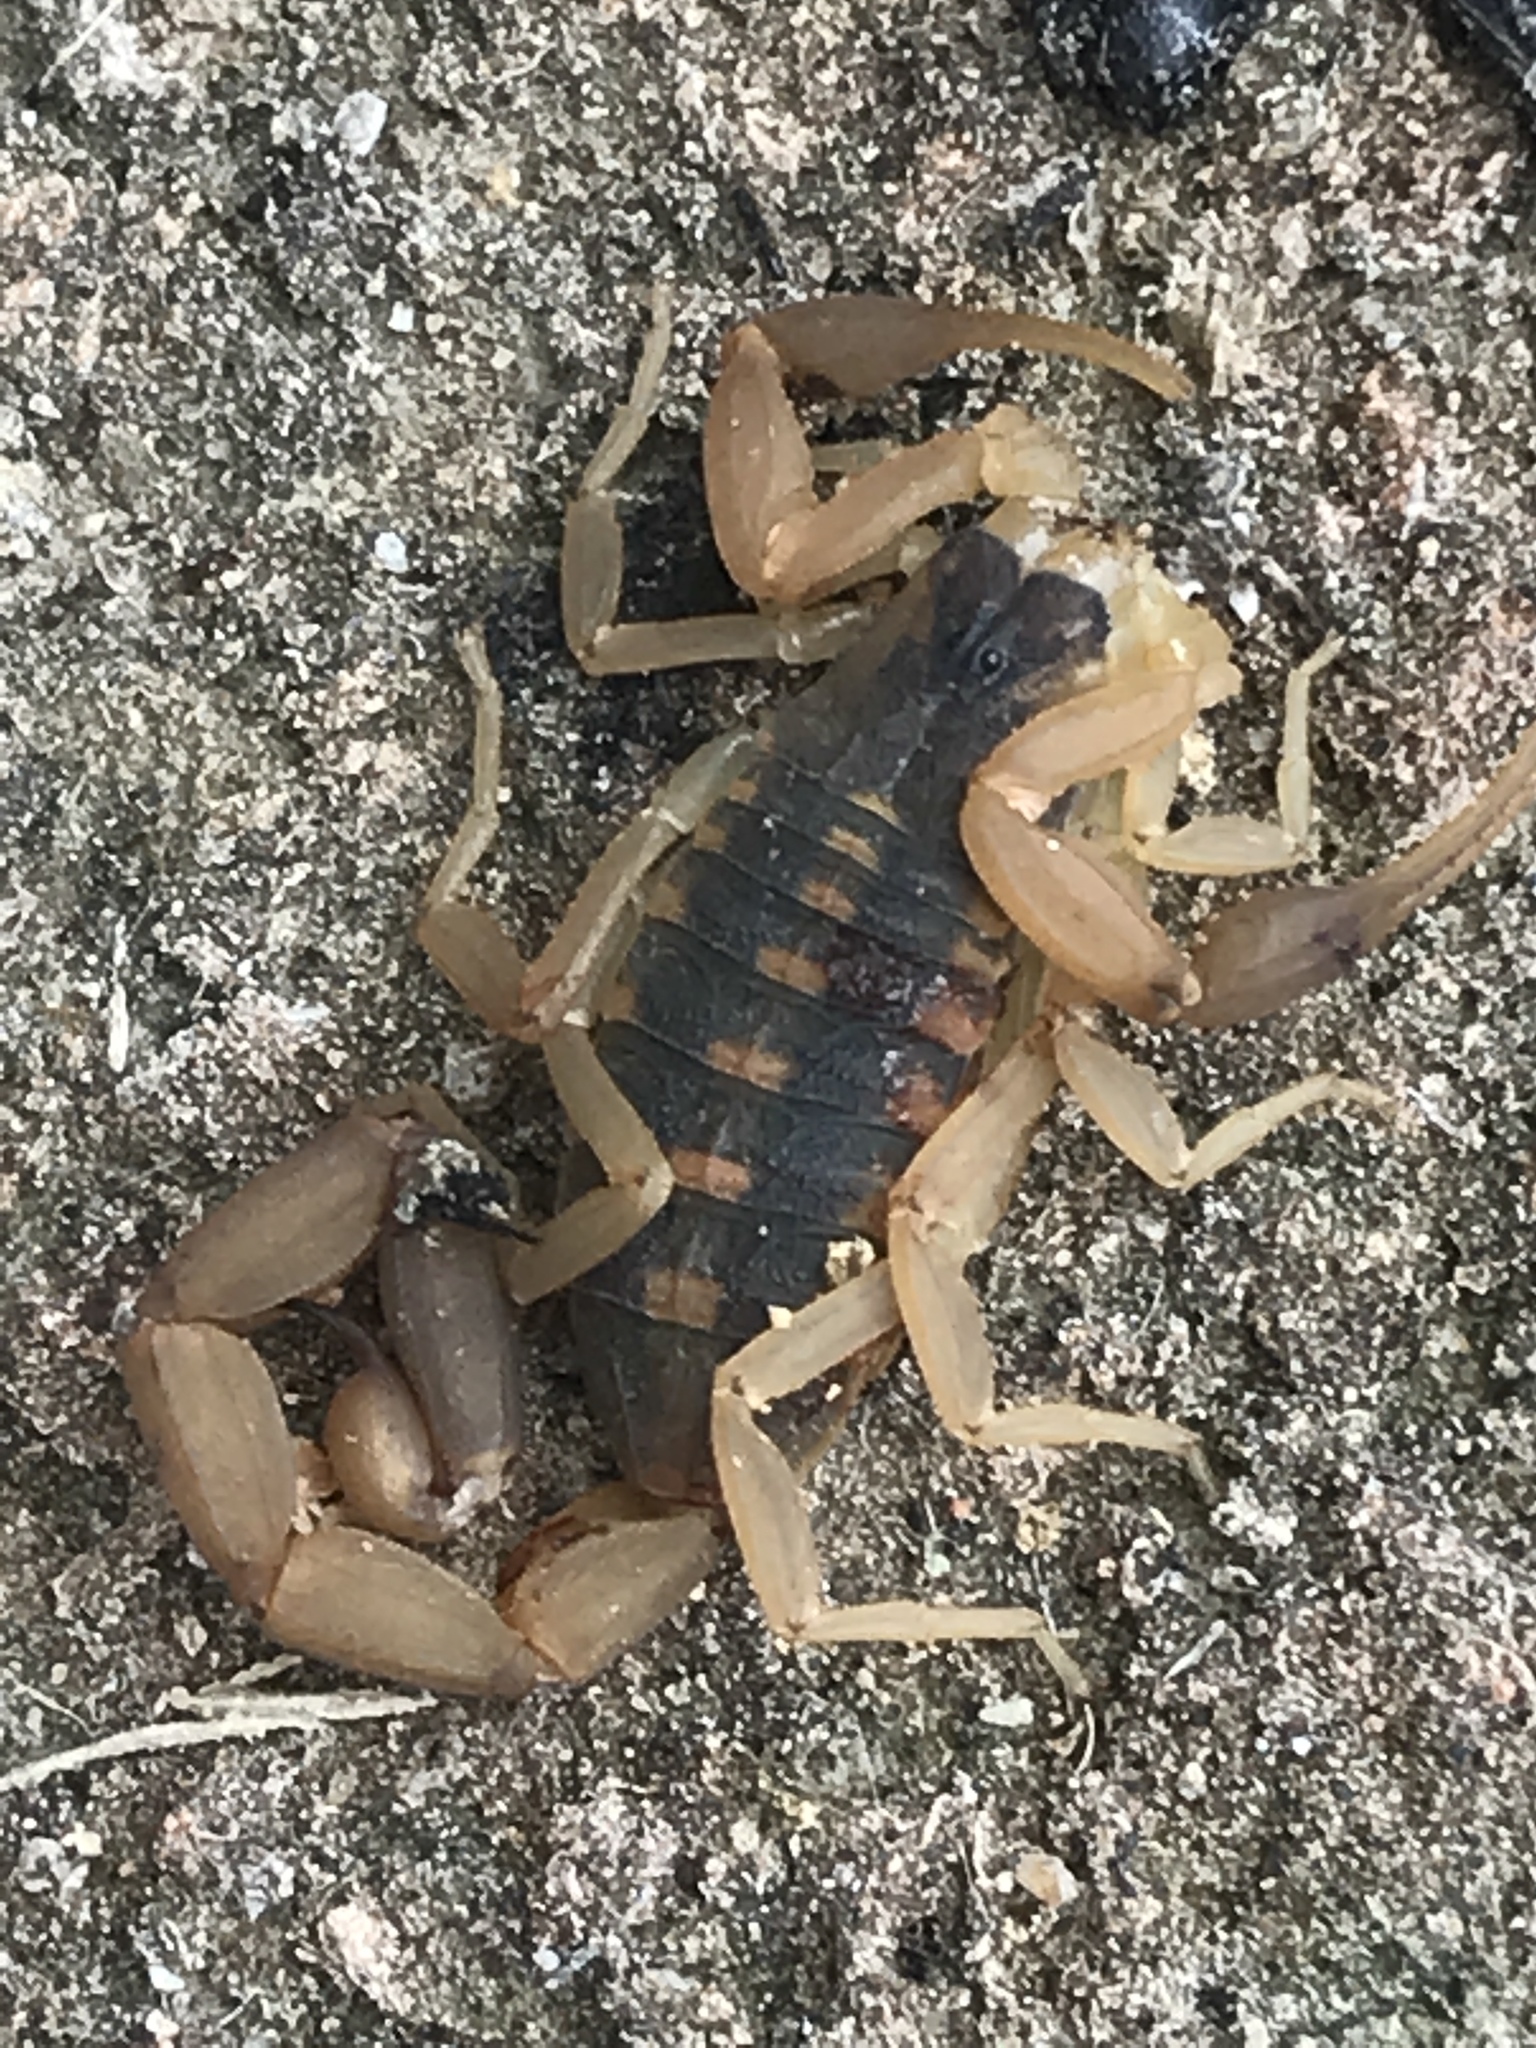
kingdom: Animalia
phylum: Arthropoda
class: Arachnida
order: Scorpiones
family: Buthidae
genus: Centruroides
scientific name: Centruroides vittatus
